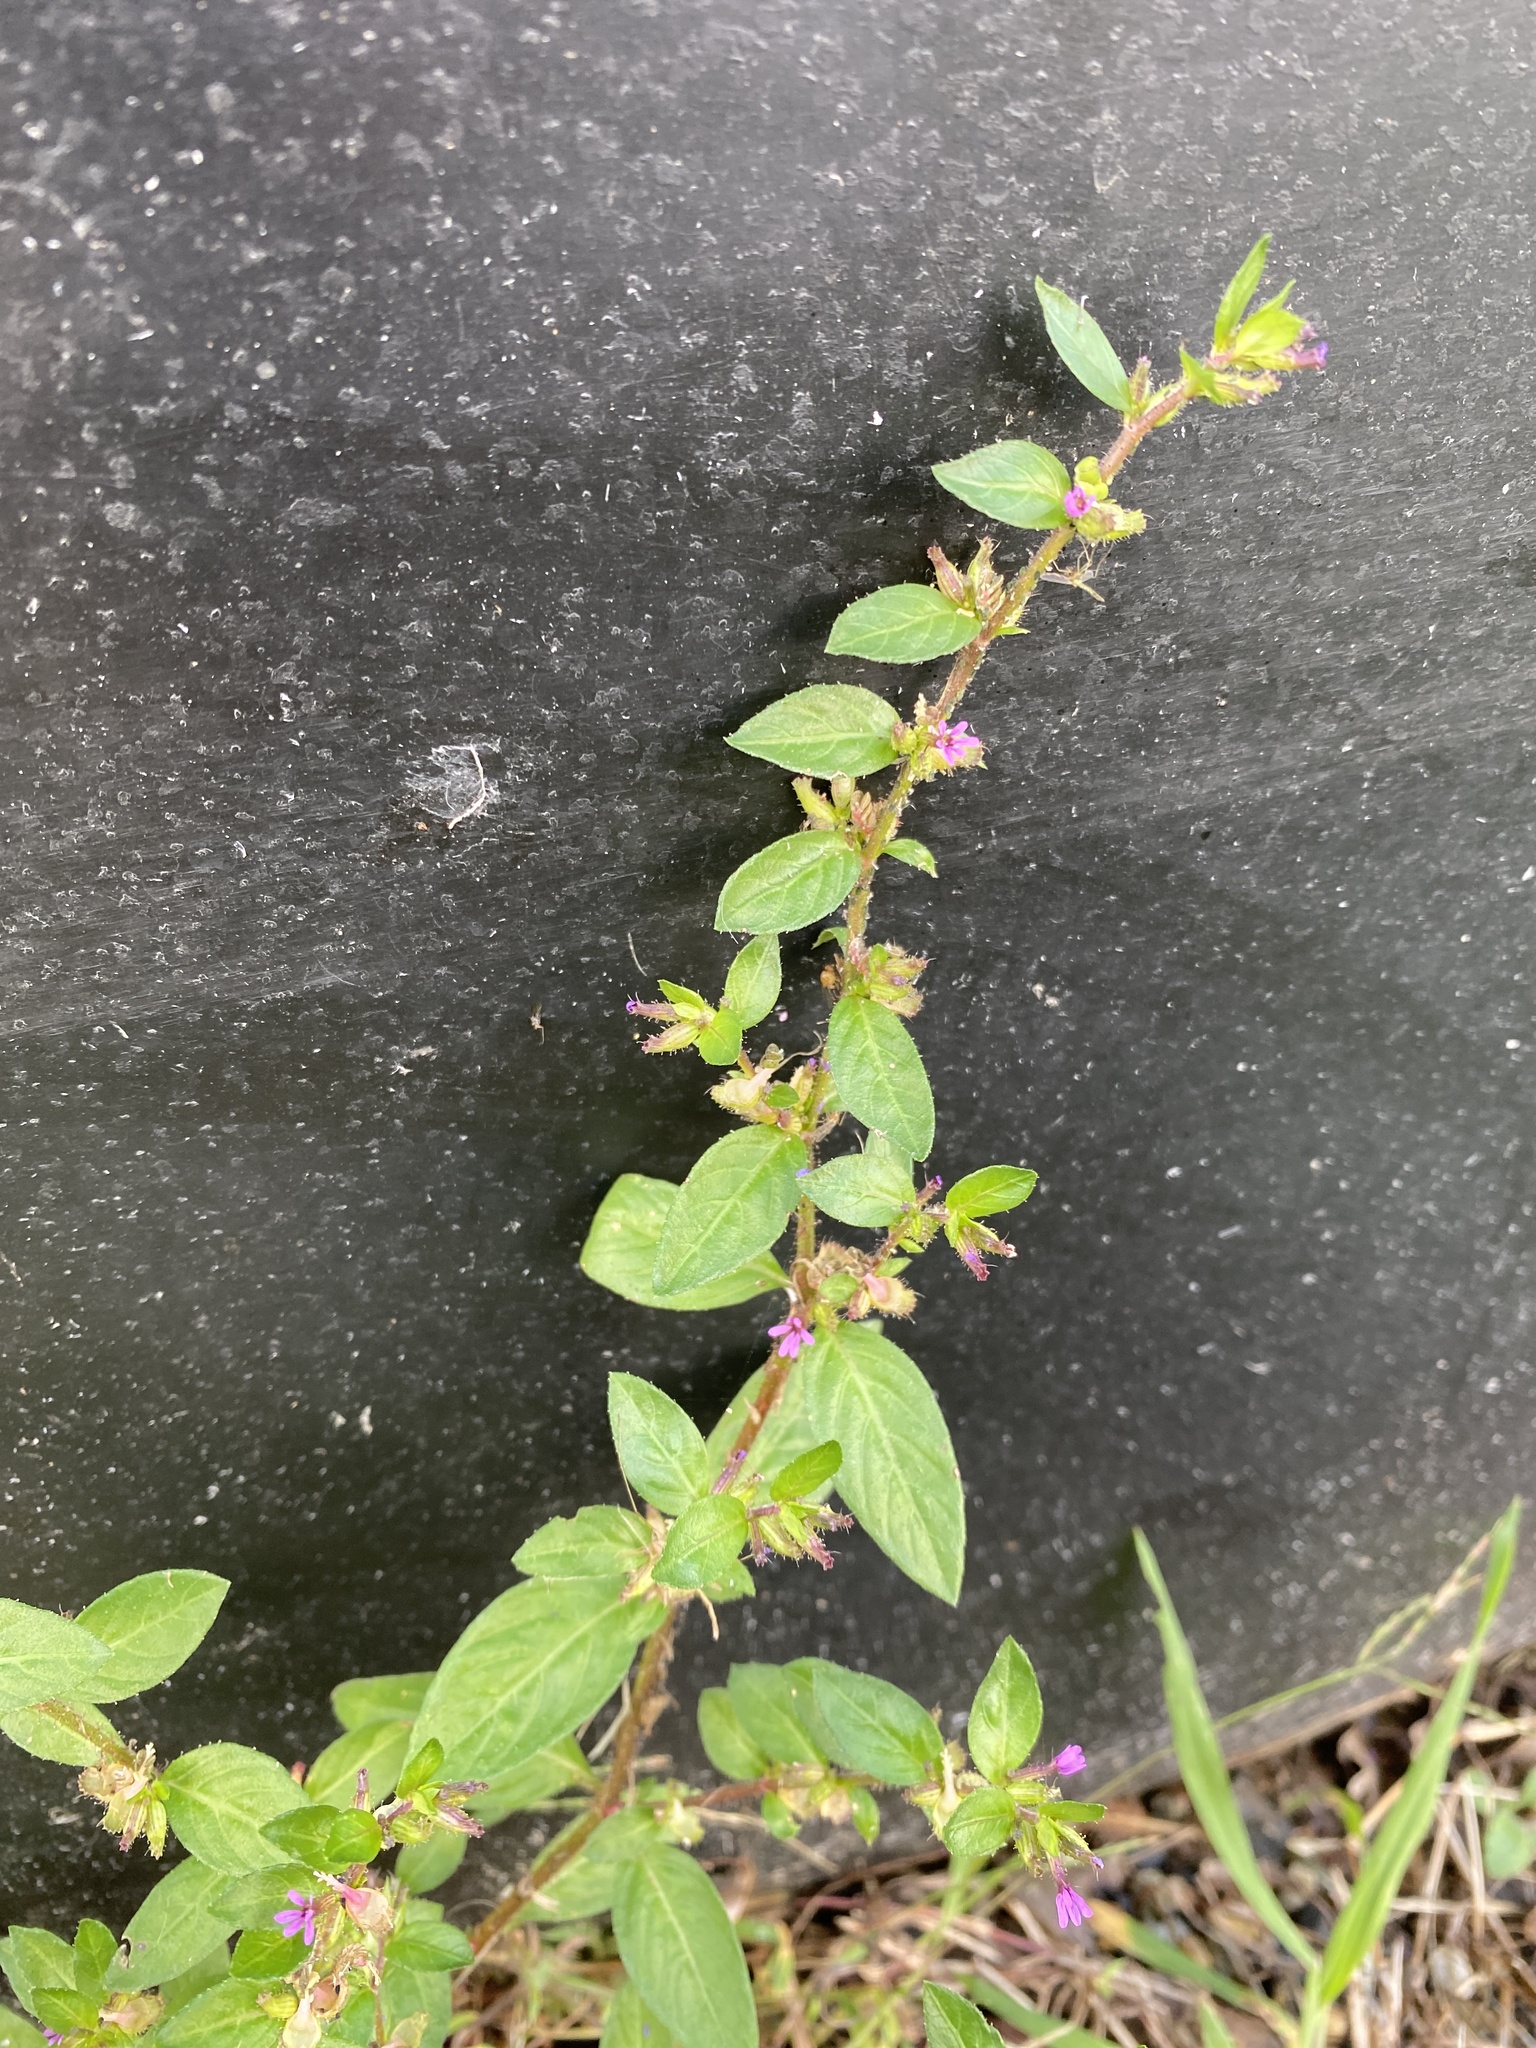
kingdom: Plantae
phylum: Tracheophyta
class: Magnoliopsida
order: Myrtales
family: Lythraceae
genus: Cuphea
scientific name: Cuphea carthagenensis
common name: Colombian waxweed
